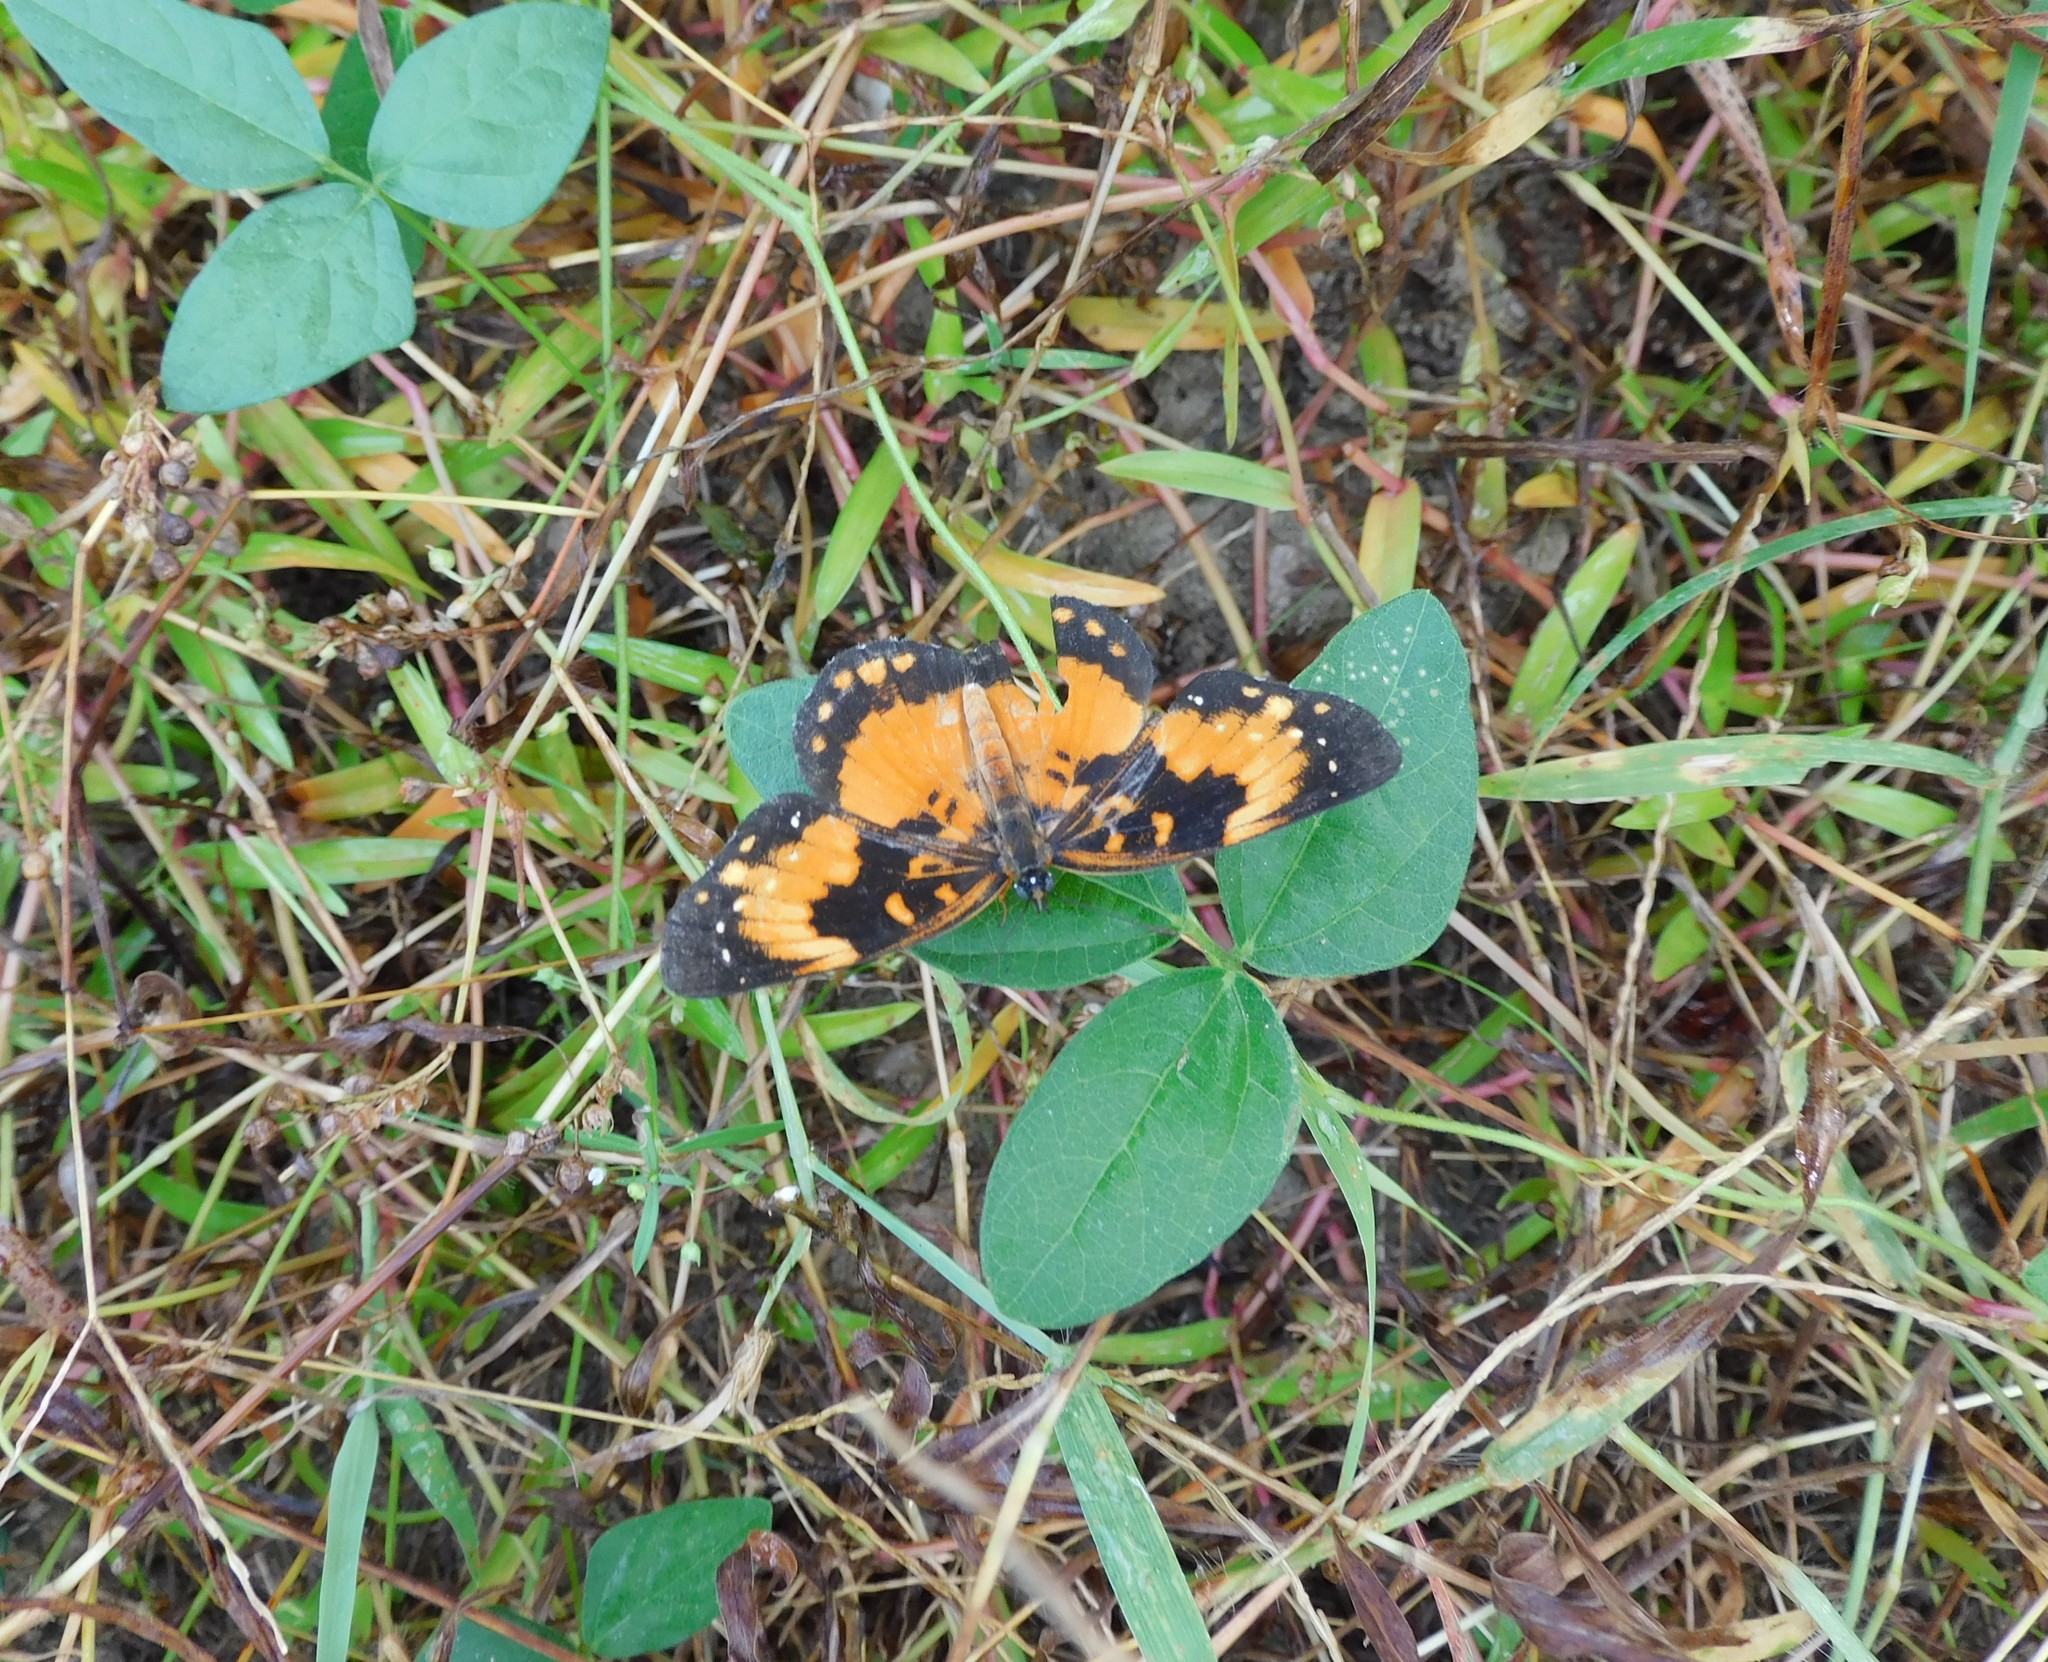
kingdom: Animalia
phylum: Arthropoda
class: Insecta
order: Lepidoptera
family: Nymphalidae
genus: Chlosyne
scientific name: Chlosyne lacinia
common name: Bordered patch
